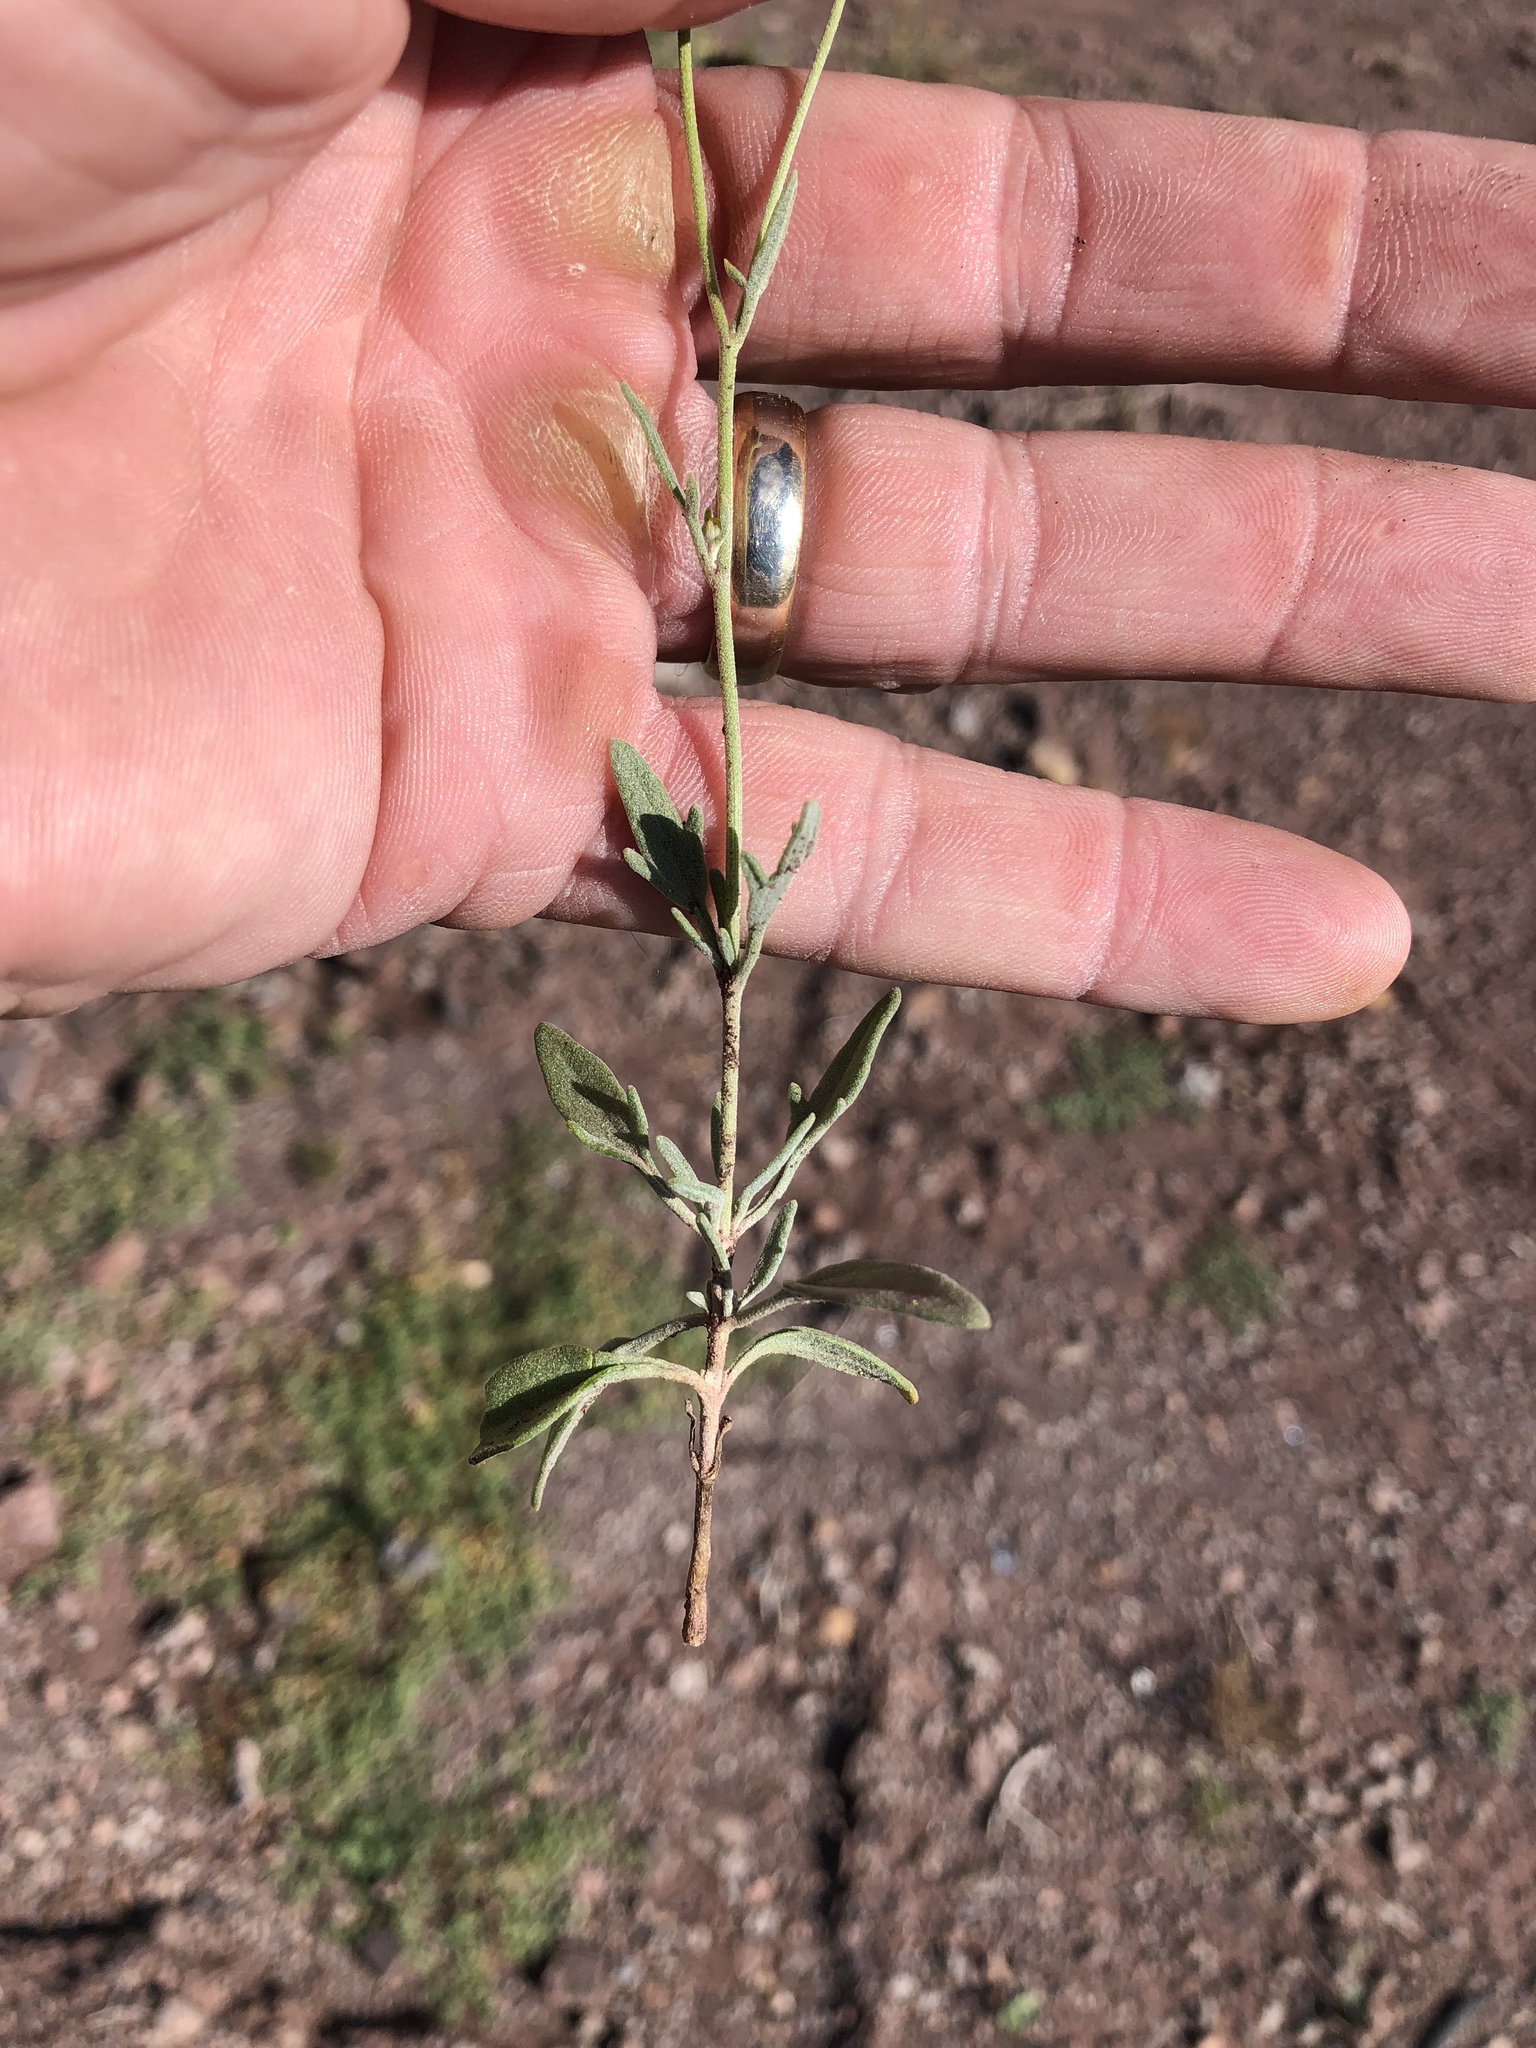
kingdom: Plantae
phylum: Tracheophyta
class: Magnoliopsida
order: Asterales
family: Asteraceae
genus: Picradeniopsis
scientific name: Picradeniopsis absinthifolia
